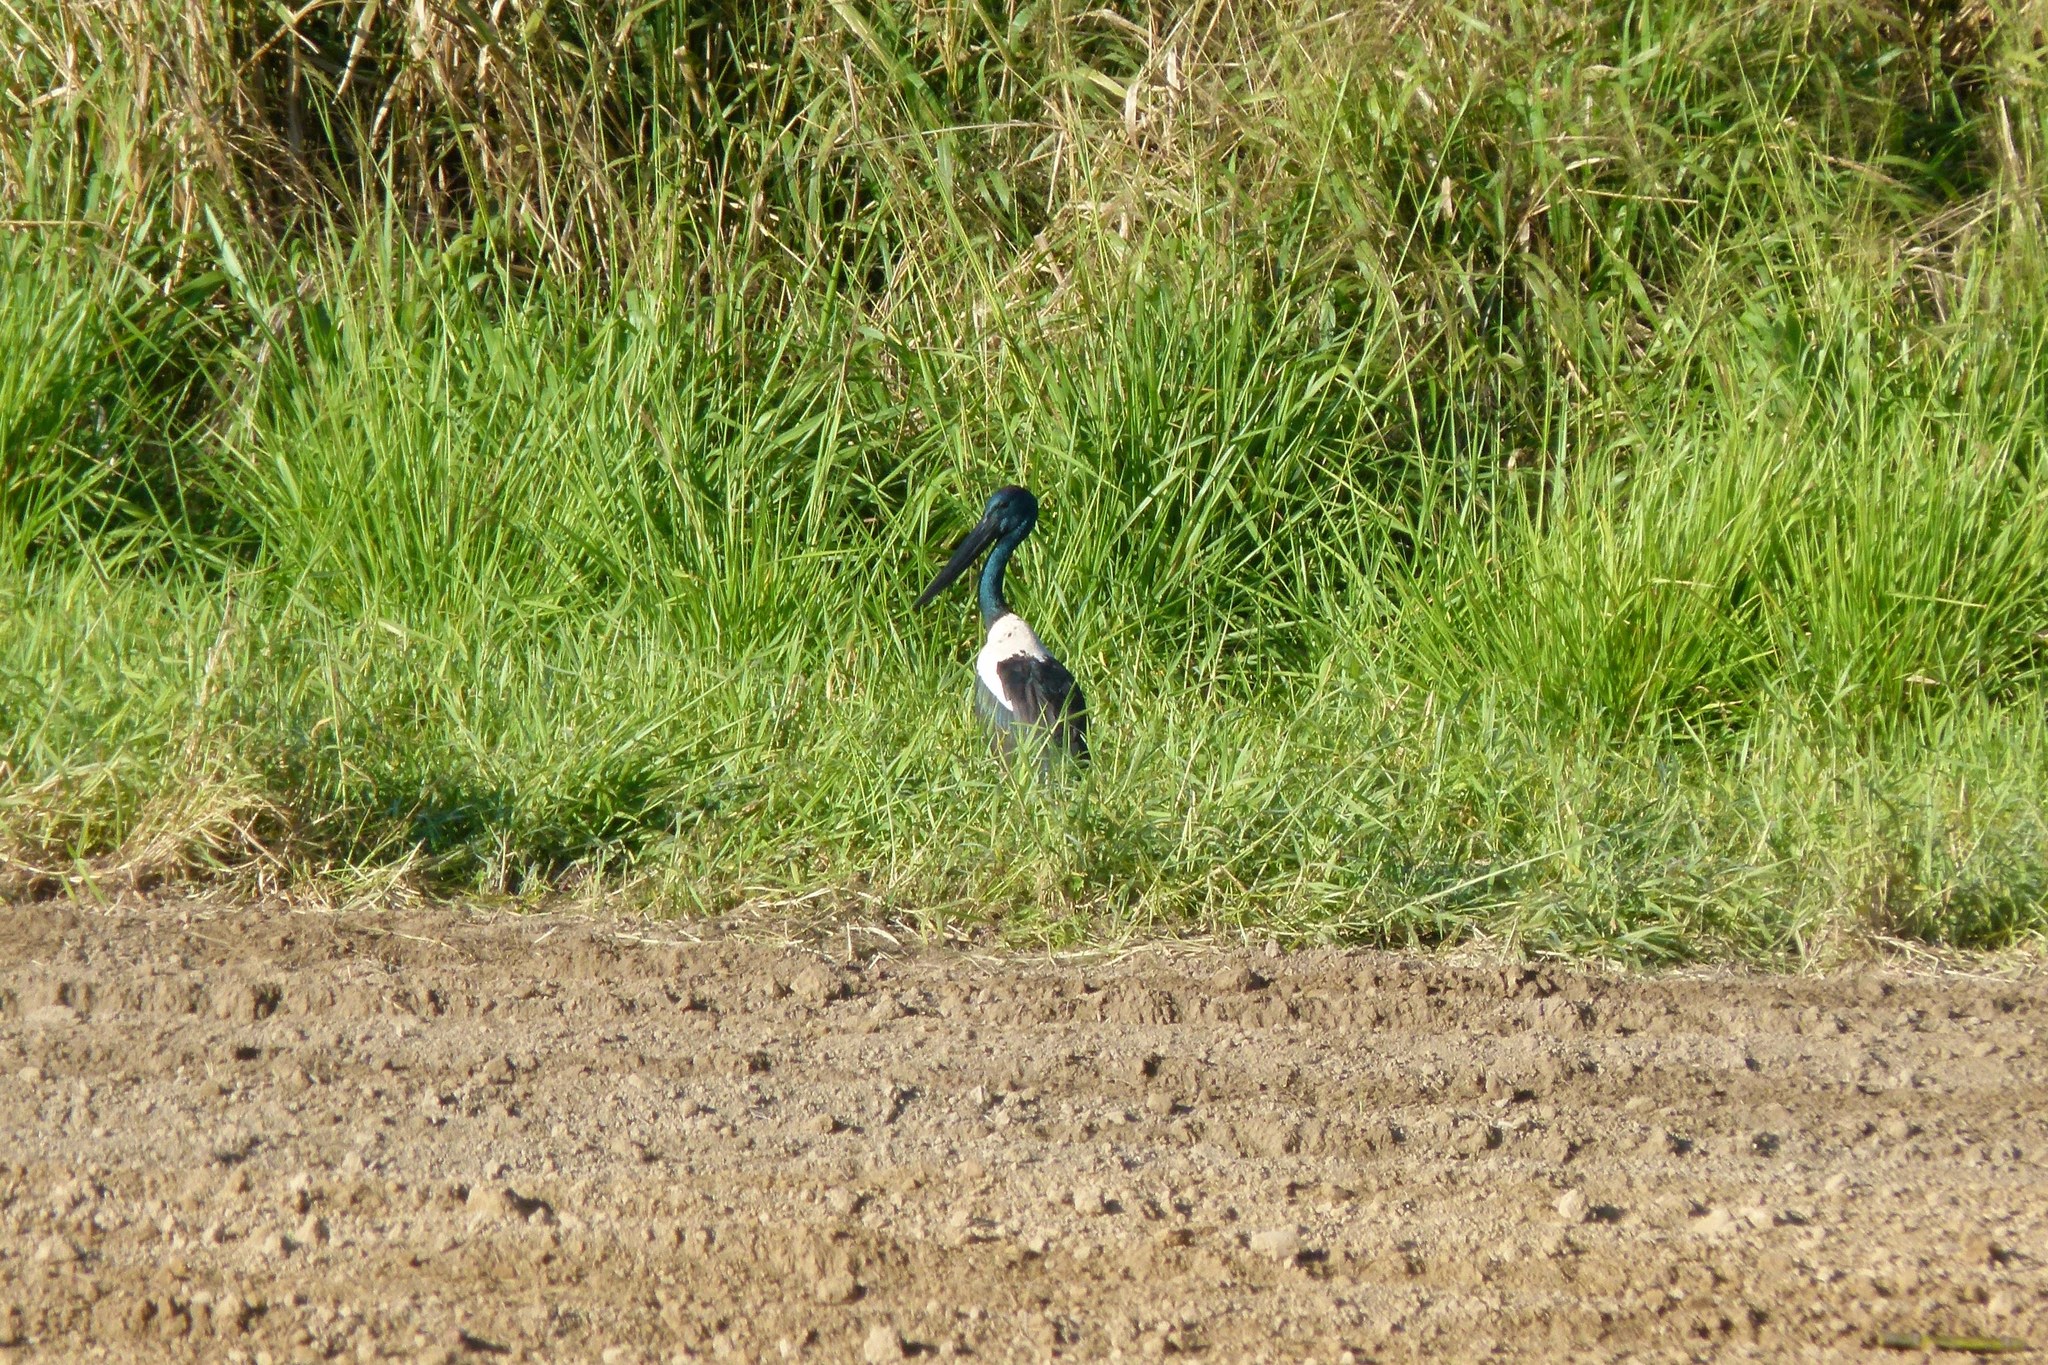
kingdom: Animalia
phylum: Chordata
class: Aves
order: Ciconiiformes
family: Ciconiidae
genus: Ephippiorhynchus
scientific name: Ephippiorhynchus asiaticus
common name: Black-necked stork
